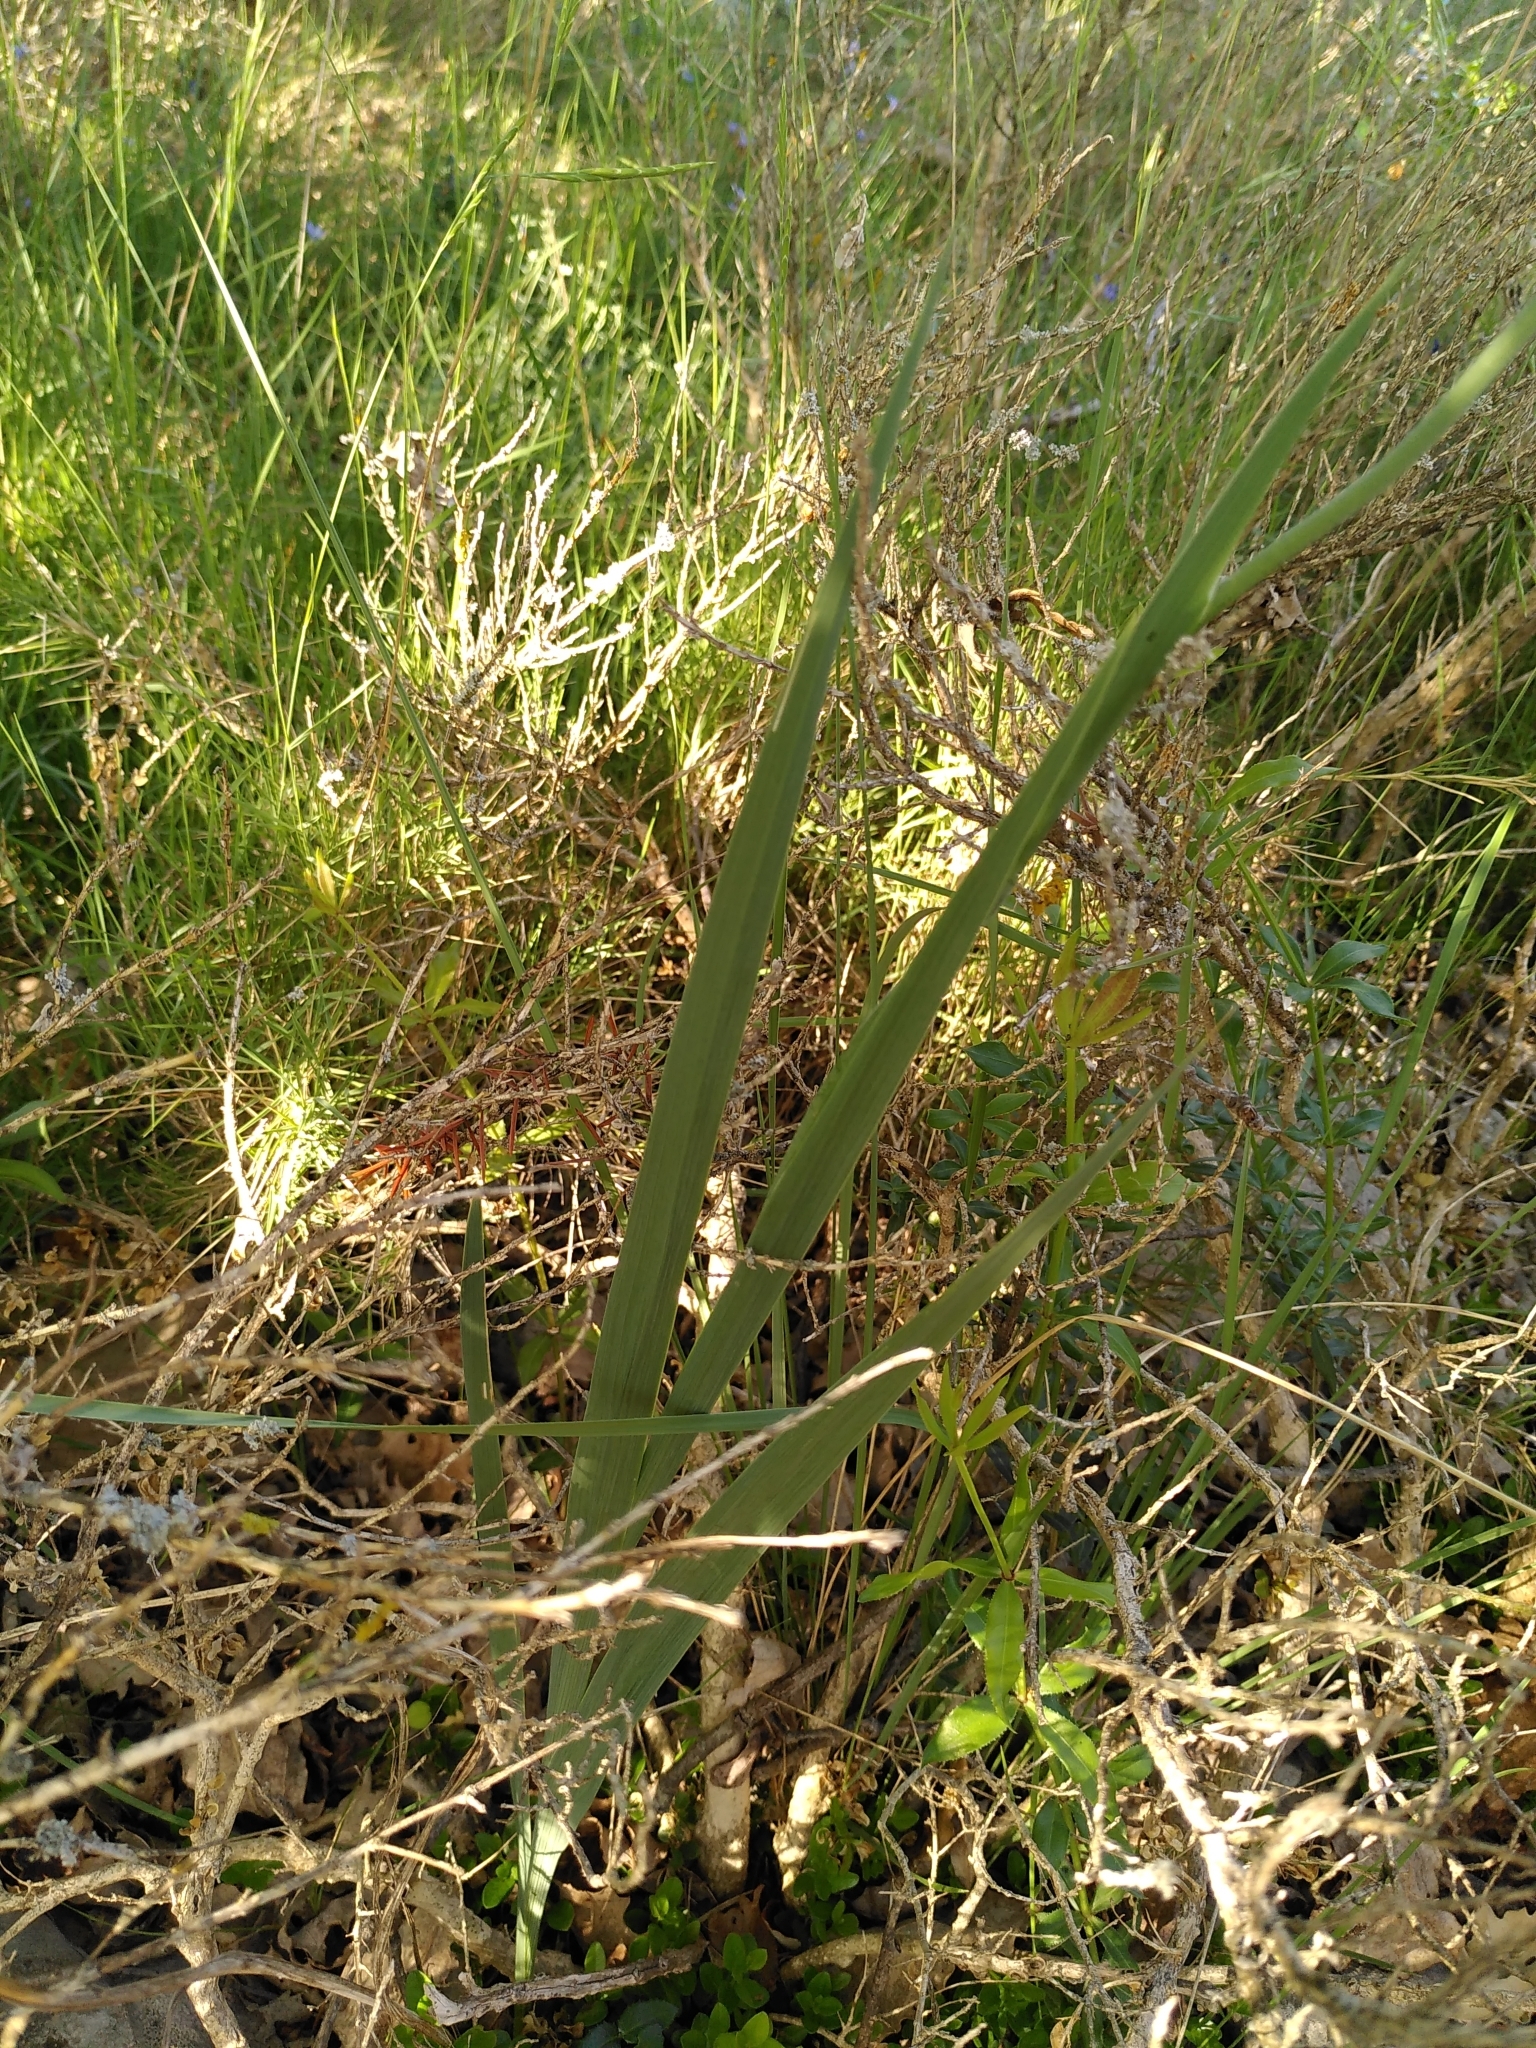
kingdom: Plantae
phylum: Tracheophyta
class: Liliopsida
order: Asparagales
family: Iridaceae
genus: Gladiolus
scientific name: Gladiolus dubius
